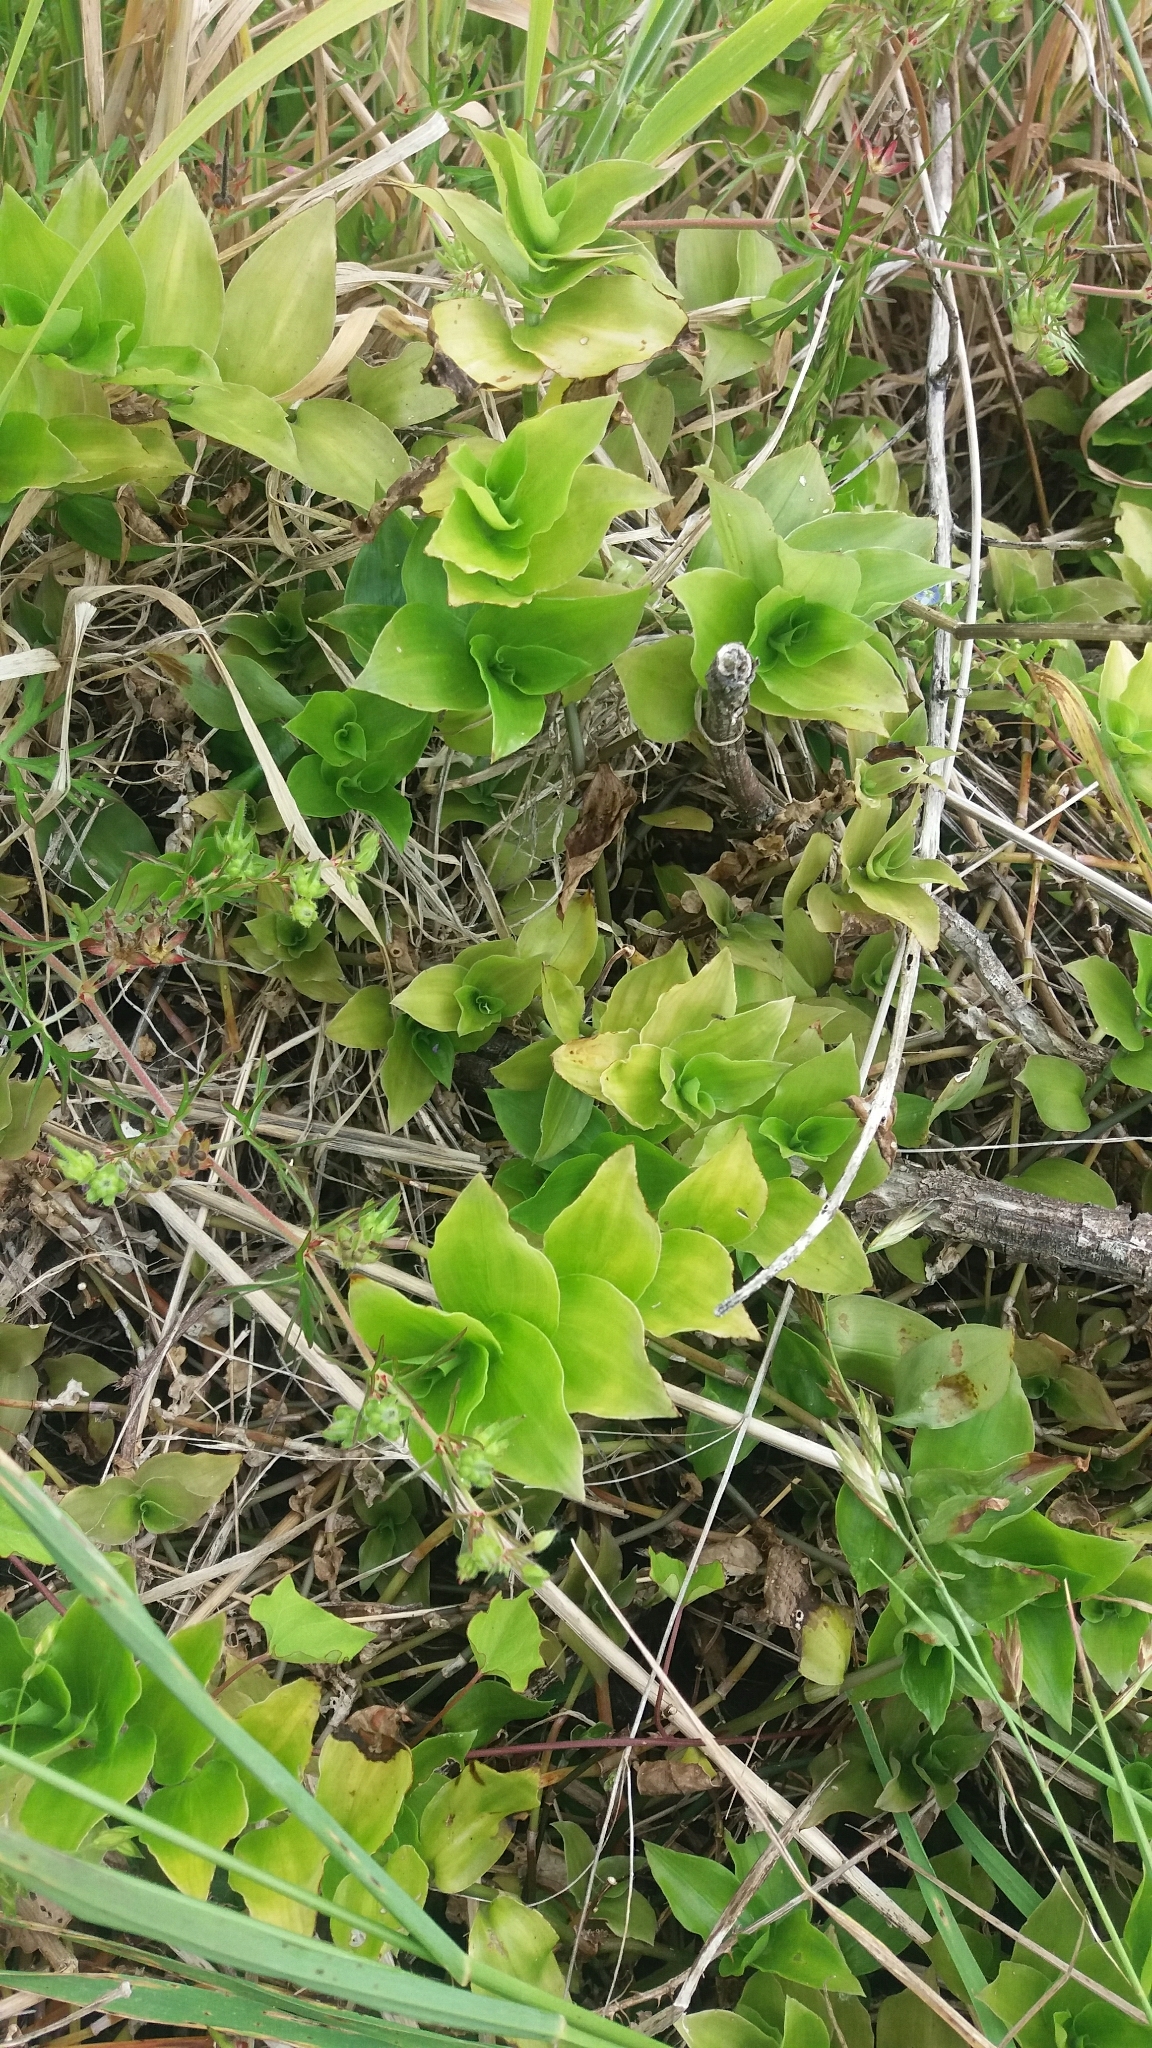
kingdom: Plantae
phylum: Tracheophyta
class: Liliopsida
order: Commelinales
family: Commelinaceae
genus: Tradescantia
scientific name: Tradescantia fluminensis
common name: Wandering-jew
